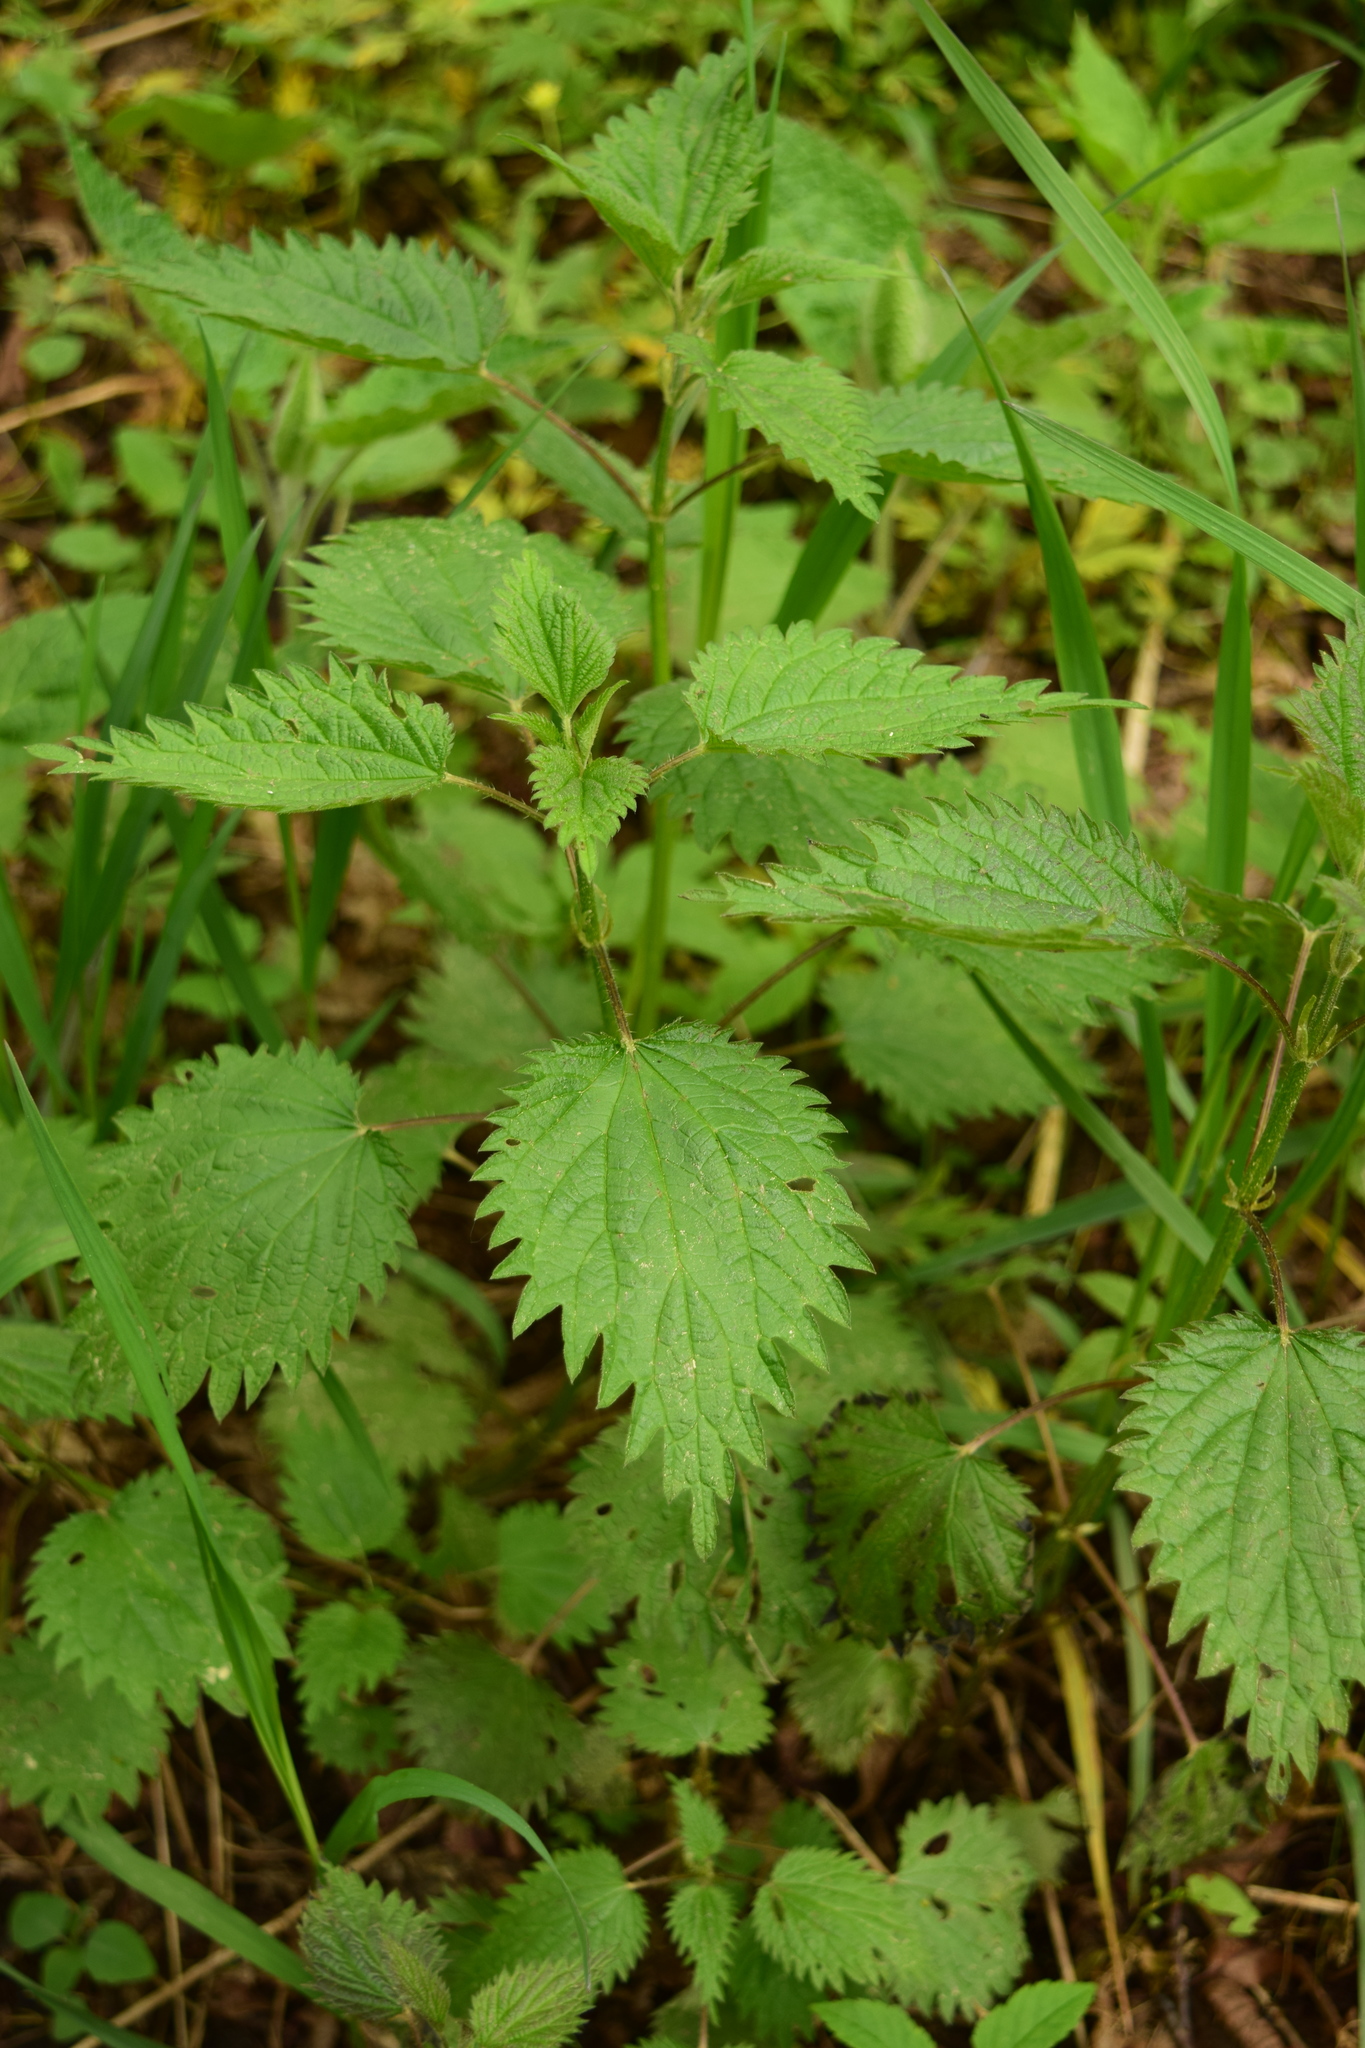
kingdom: Plantae
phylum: Tracheophyta
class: Magnoliopsida
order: Rosales
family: Urticaceae
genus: Urtica
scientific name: Urtica dioica
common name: Common nettle
